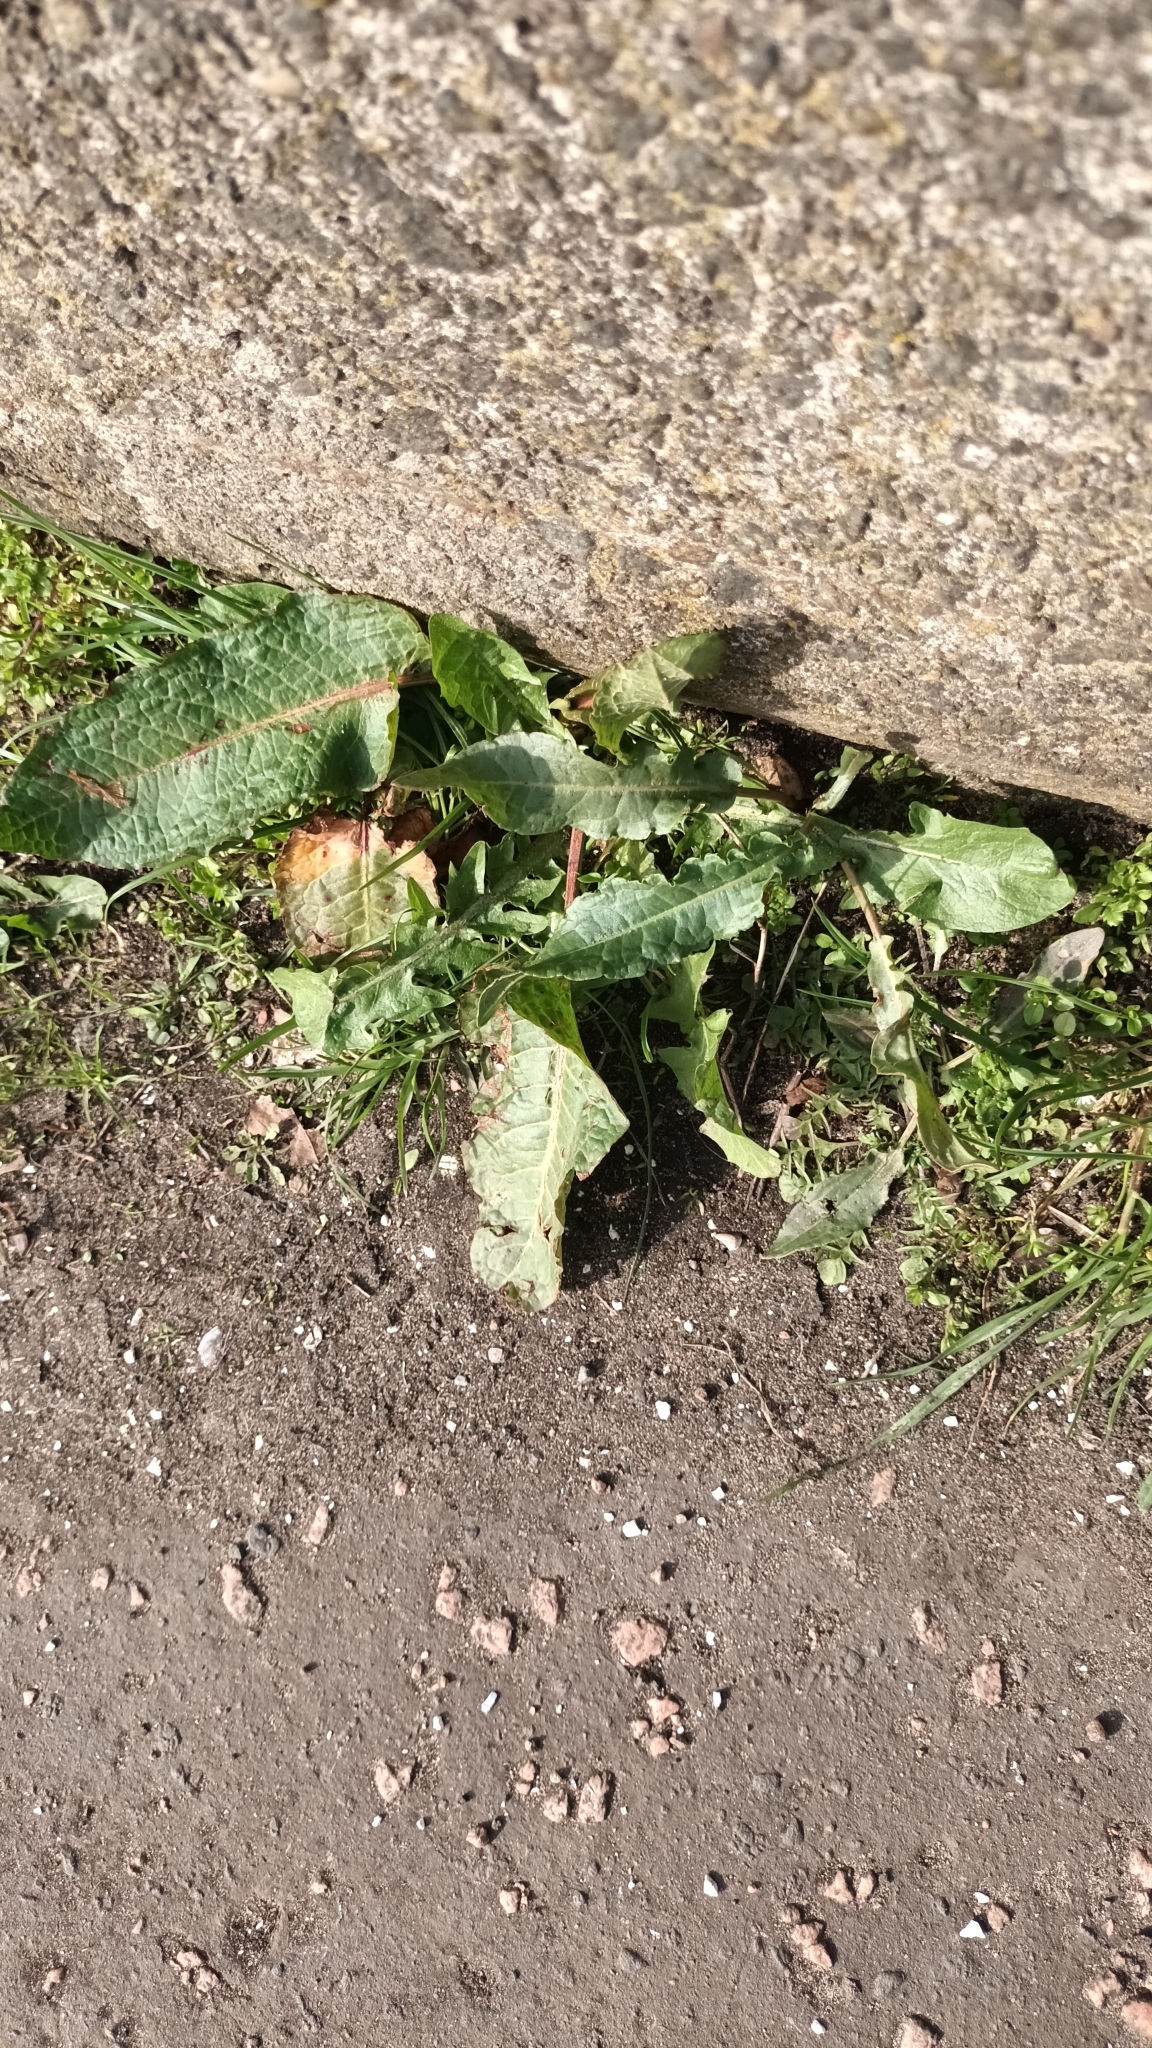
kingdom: Plantae
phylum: Tracheophyta
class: Magnoliopsida
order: Caryophyllales
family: Polygonaceae
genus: Rumex
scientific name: Rumex obtusifolius
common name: Bitter dock
